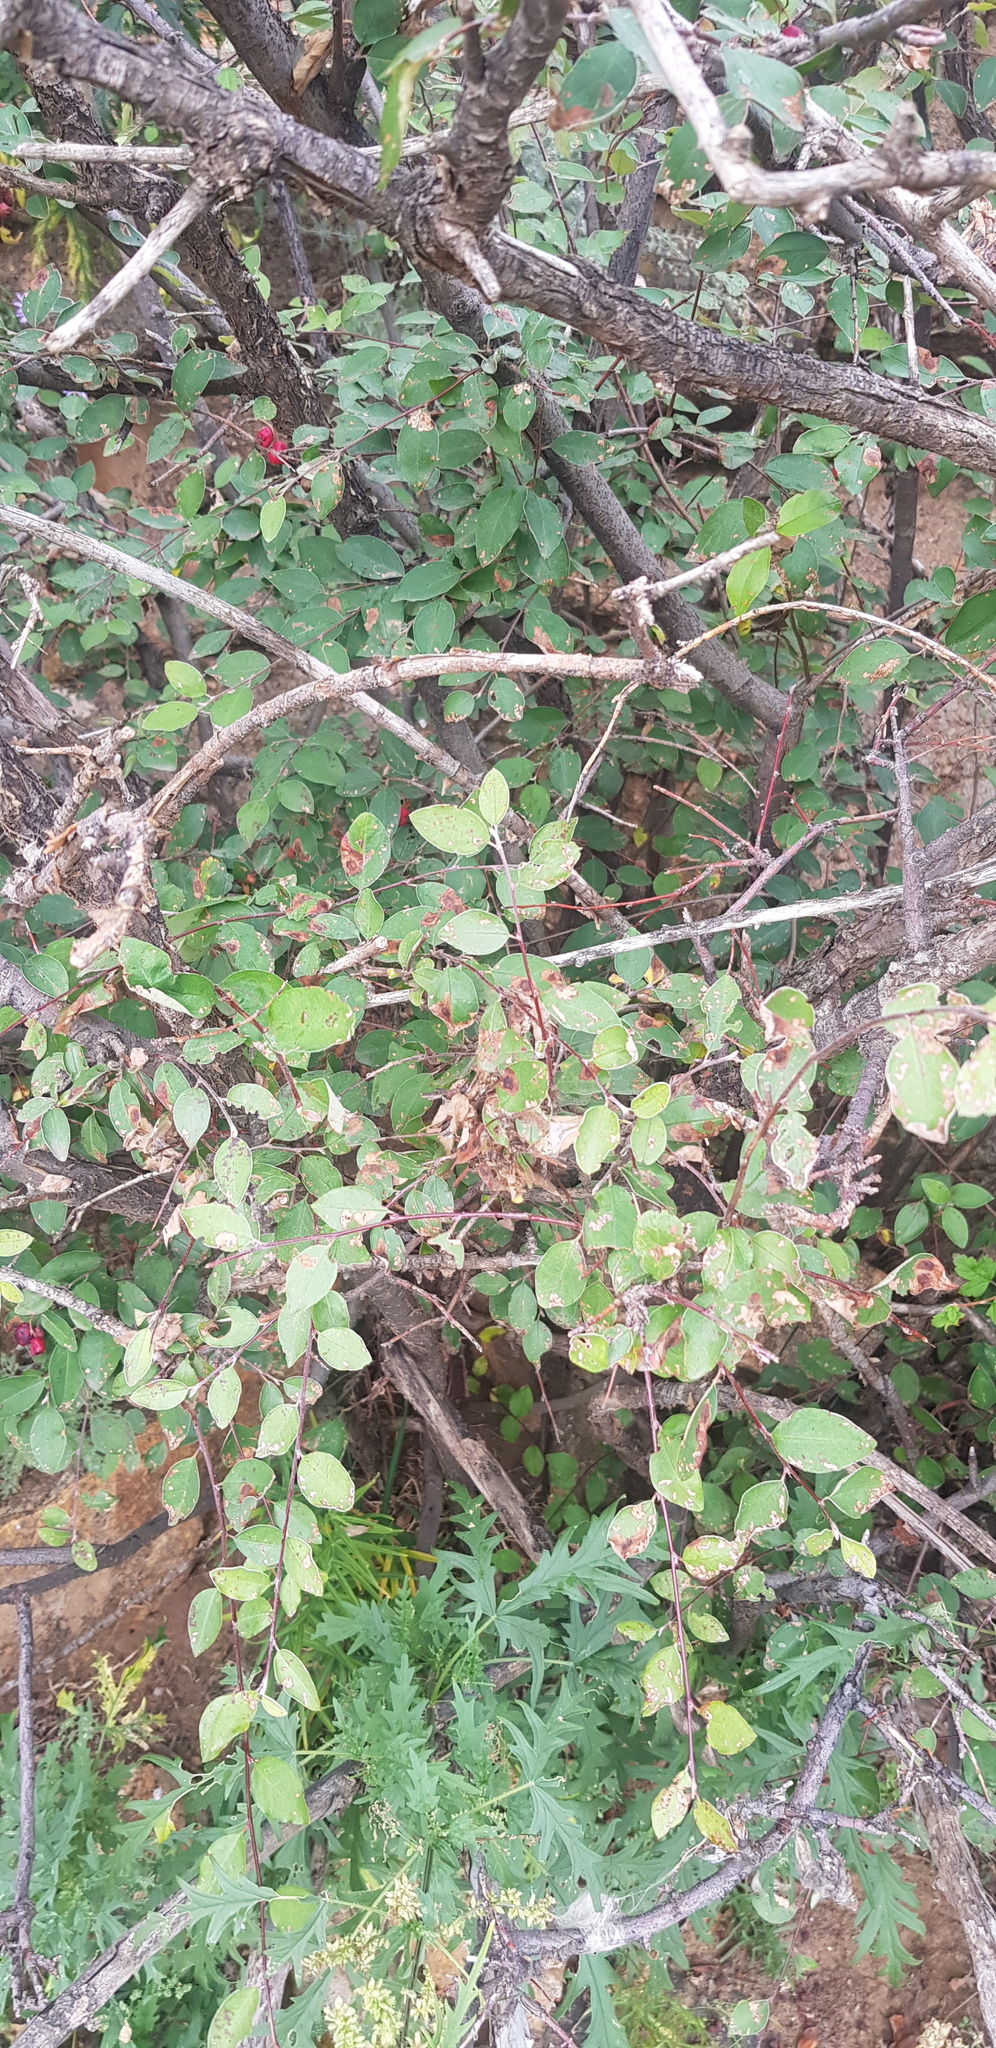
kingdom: Plantae
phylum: Tracheophyta
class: Magnoliopsida
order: Rosales
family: Rosaceae
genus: Cotoneaster
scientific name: Cotoneaster mongolicus
